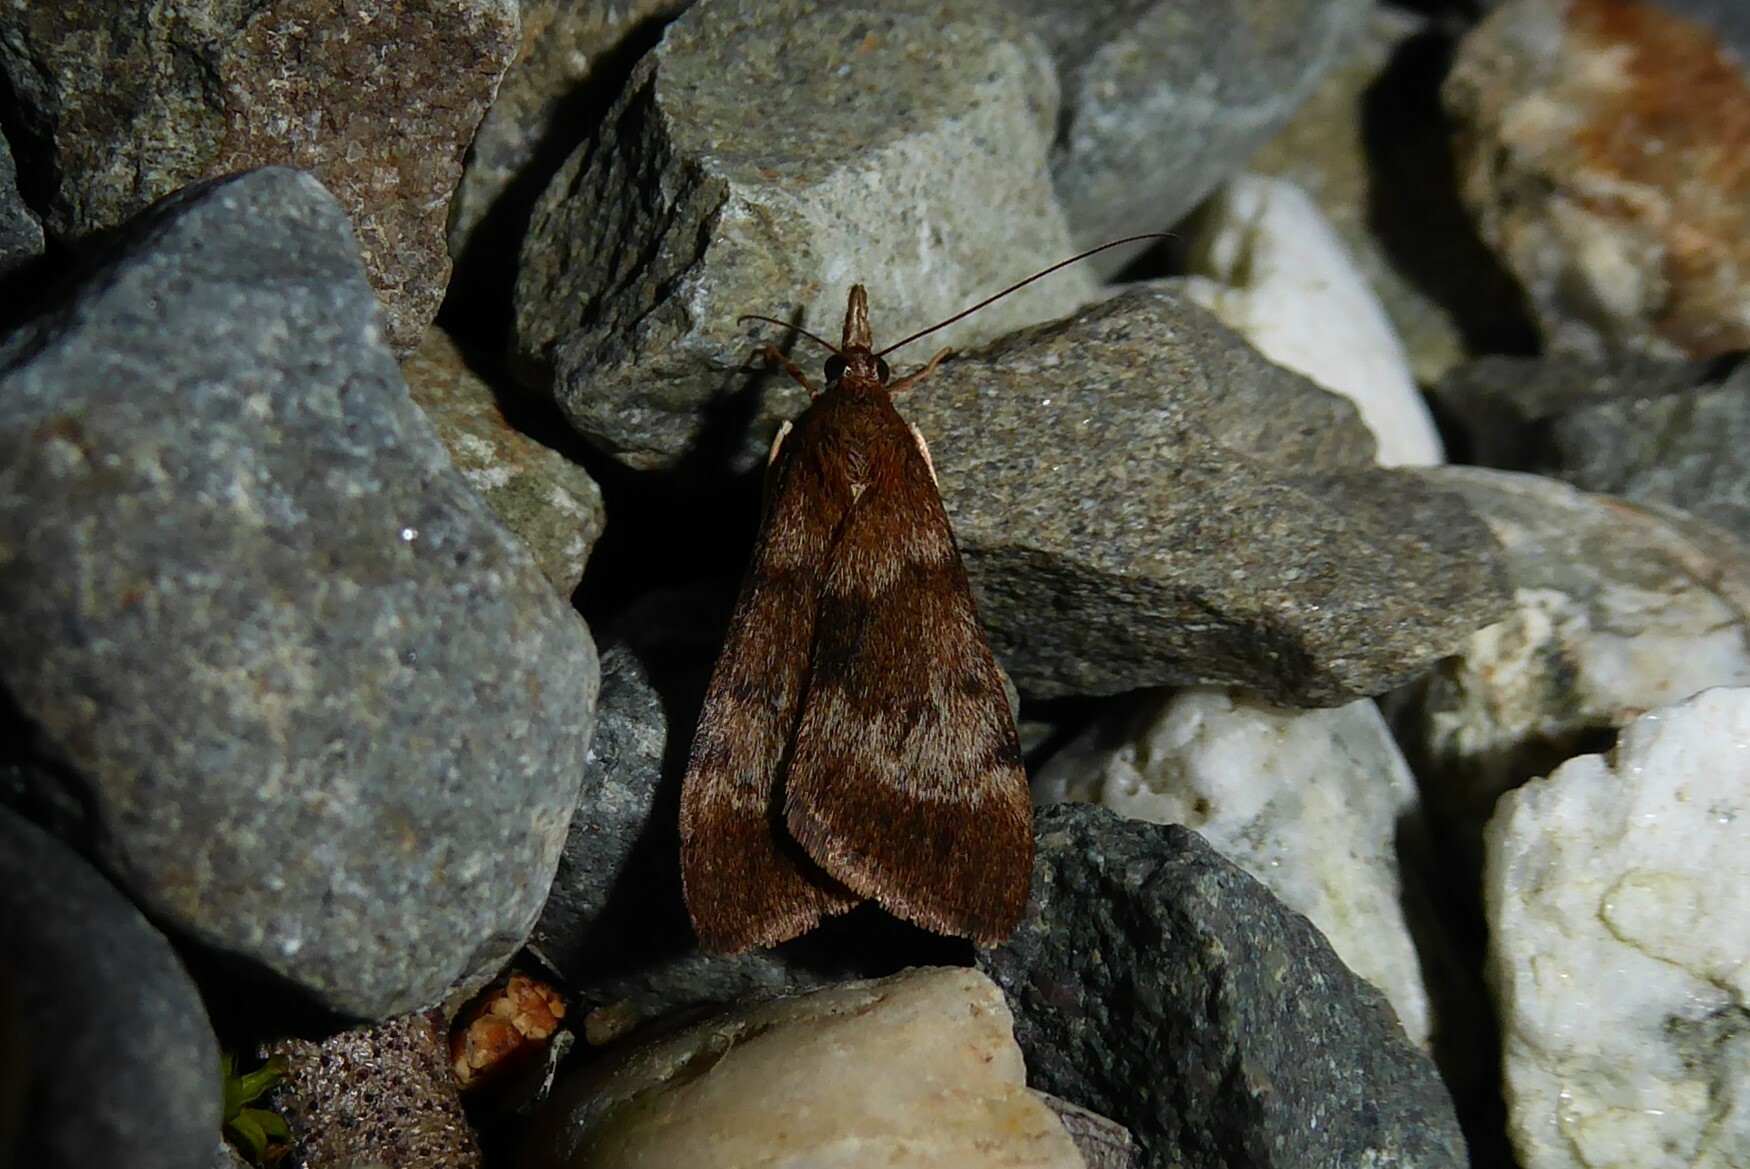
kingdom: Animalia
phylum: Arthropoda
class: Insecta
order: Lepidoptera
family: Crambidae
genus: Uresiphita
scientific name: Uresiphita
